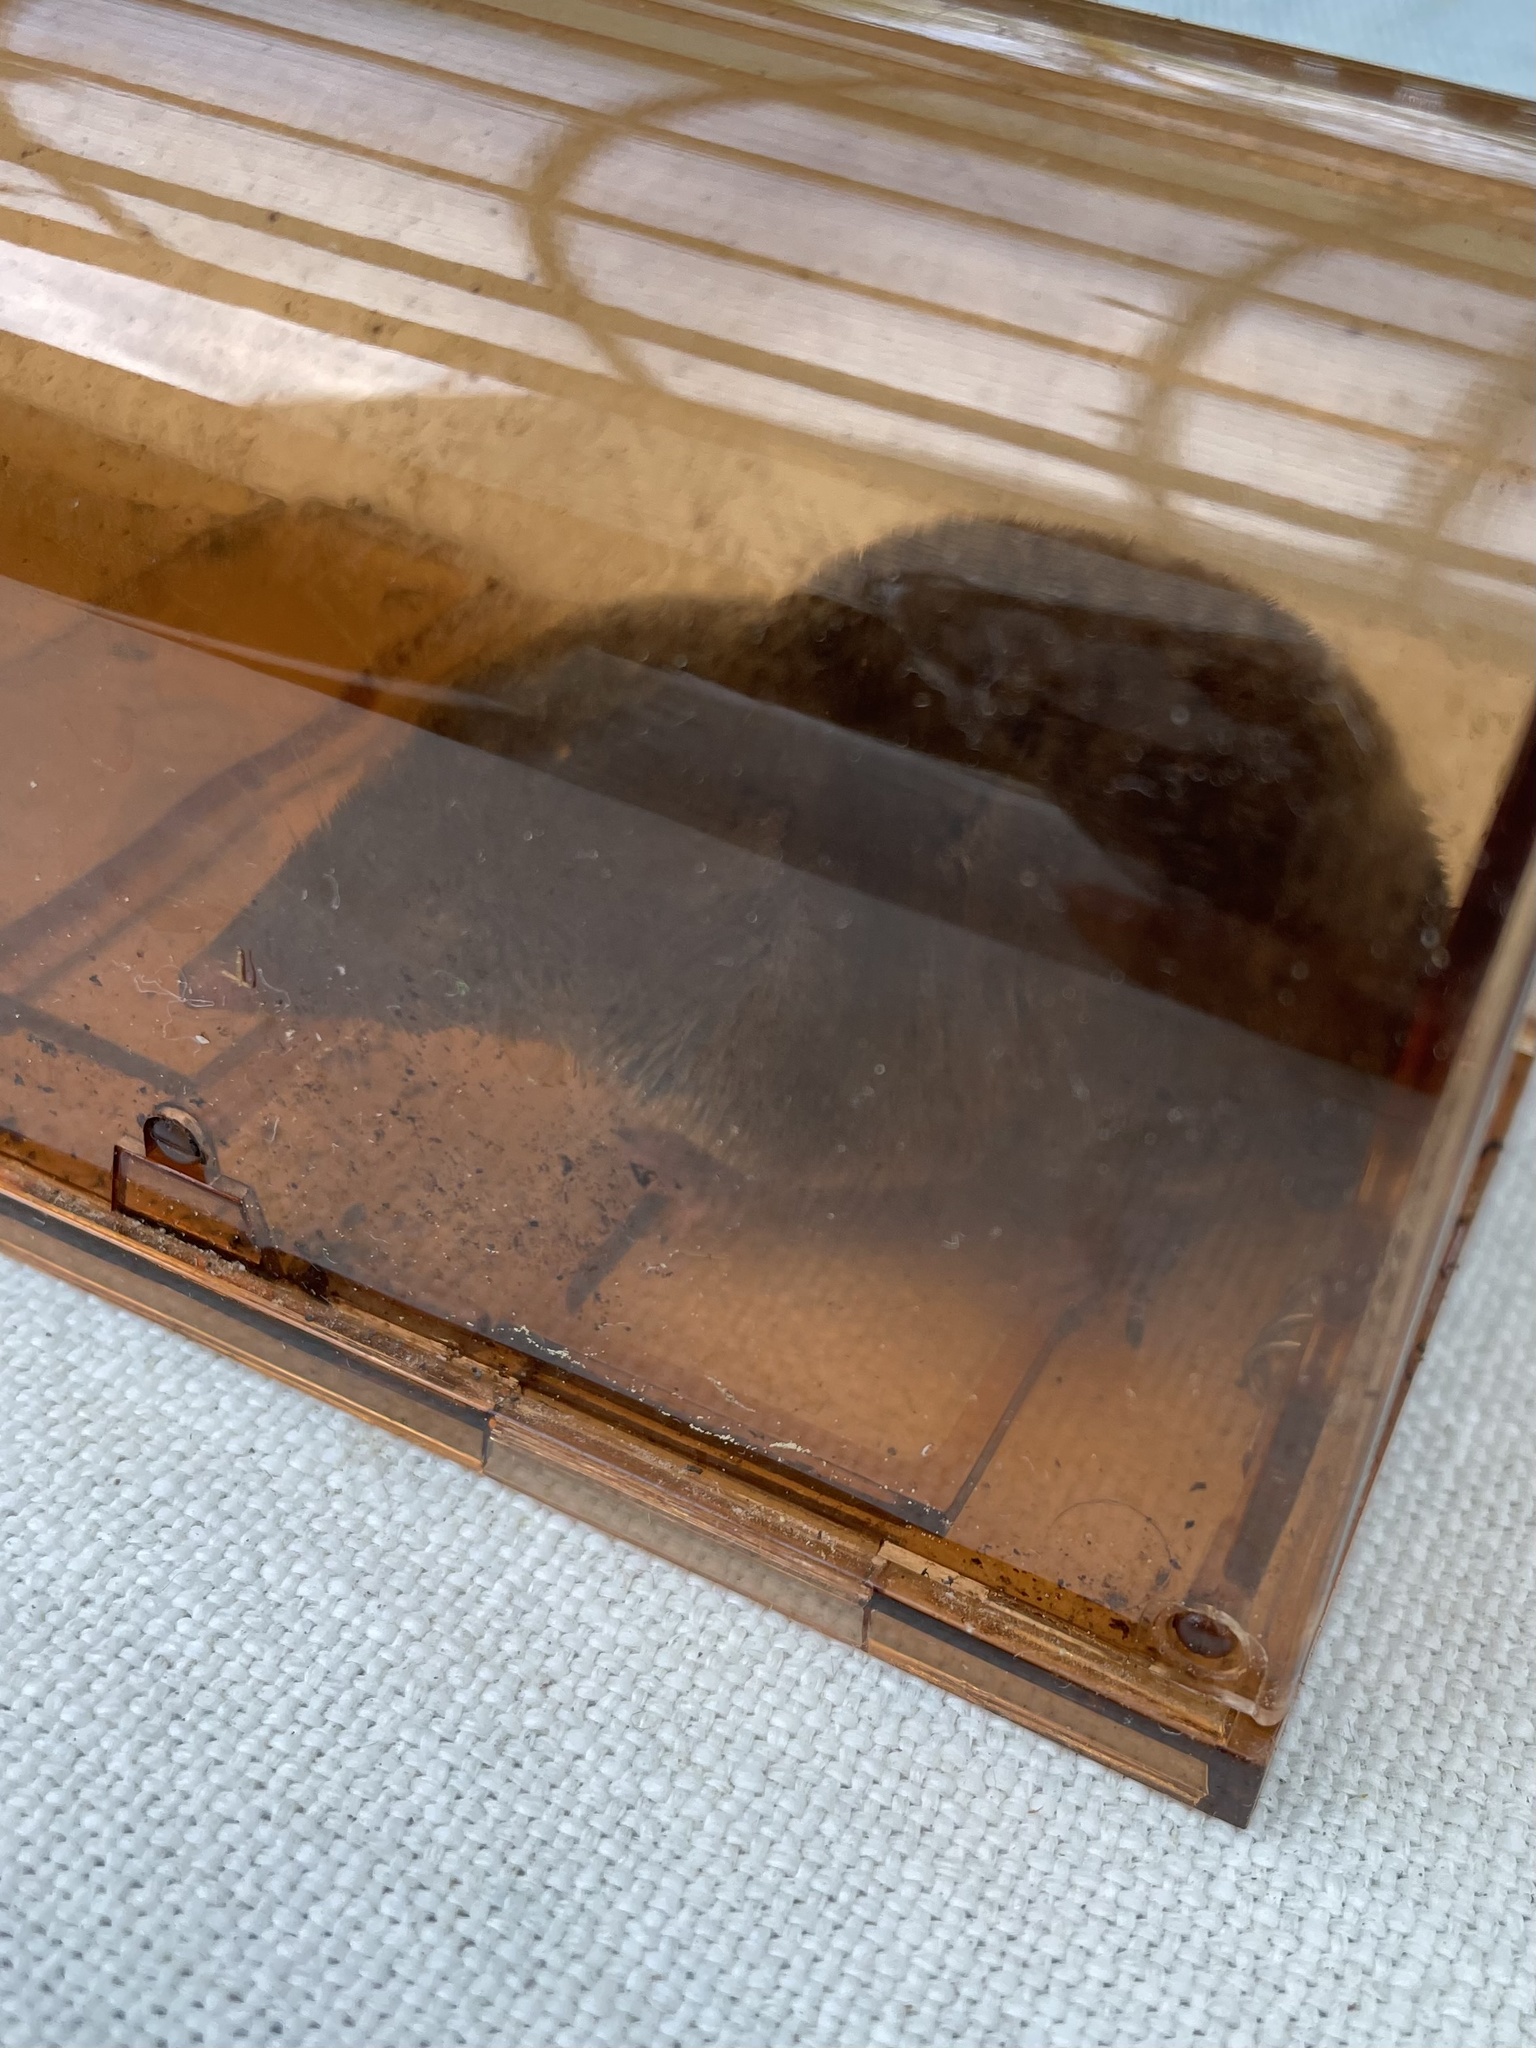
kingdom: Animalia
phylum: Chordata
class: Mammalia
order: Soricomorpha
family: Soricidae
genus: Blarina
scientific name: Blarina brevicauda
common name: Northern short-tailed shrew
